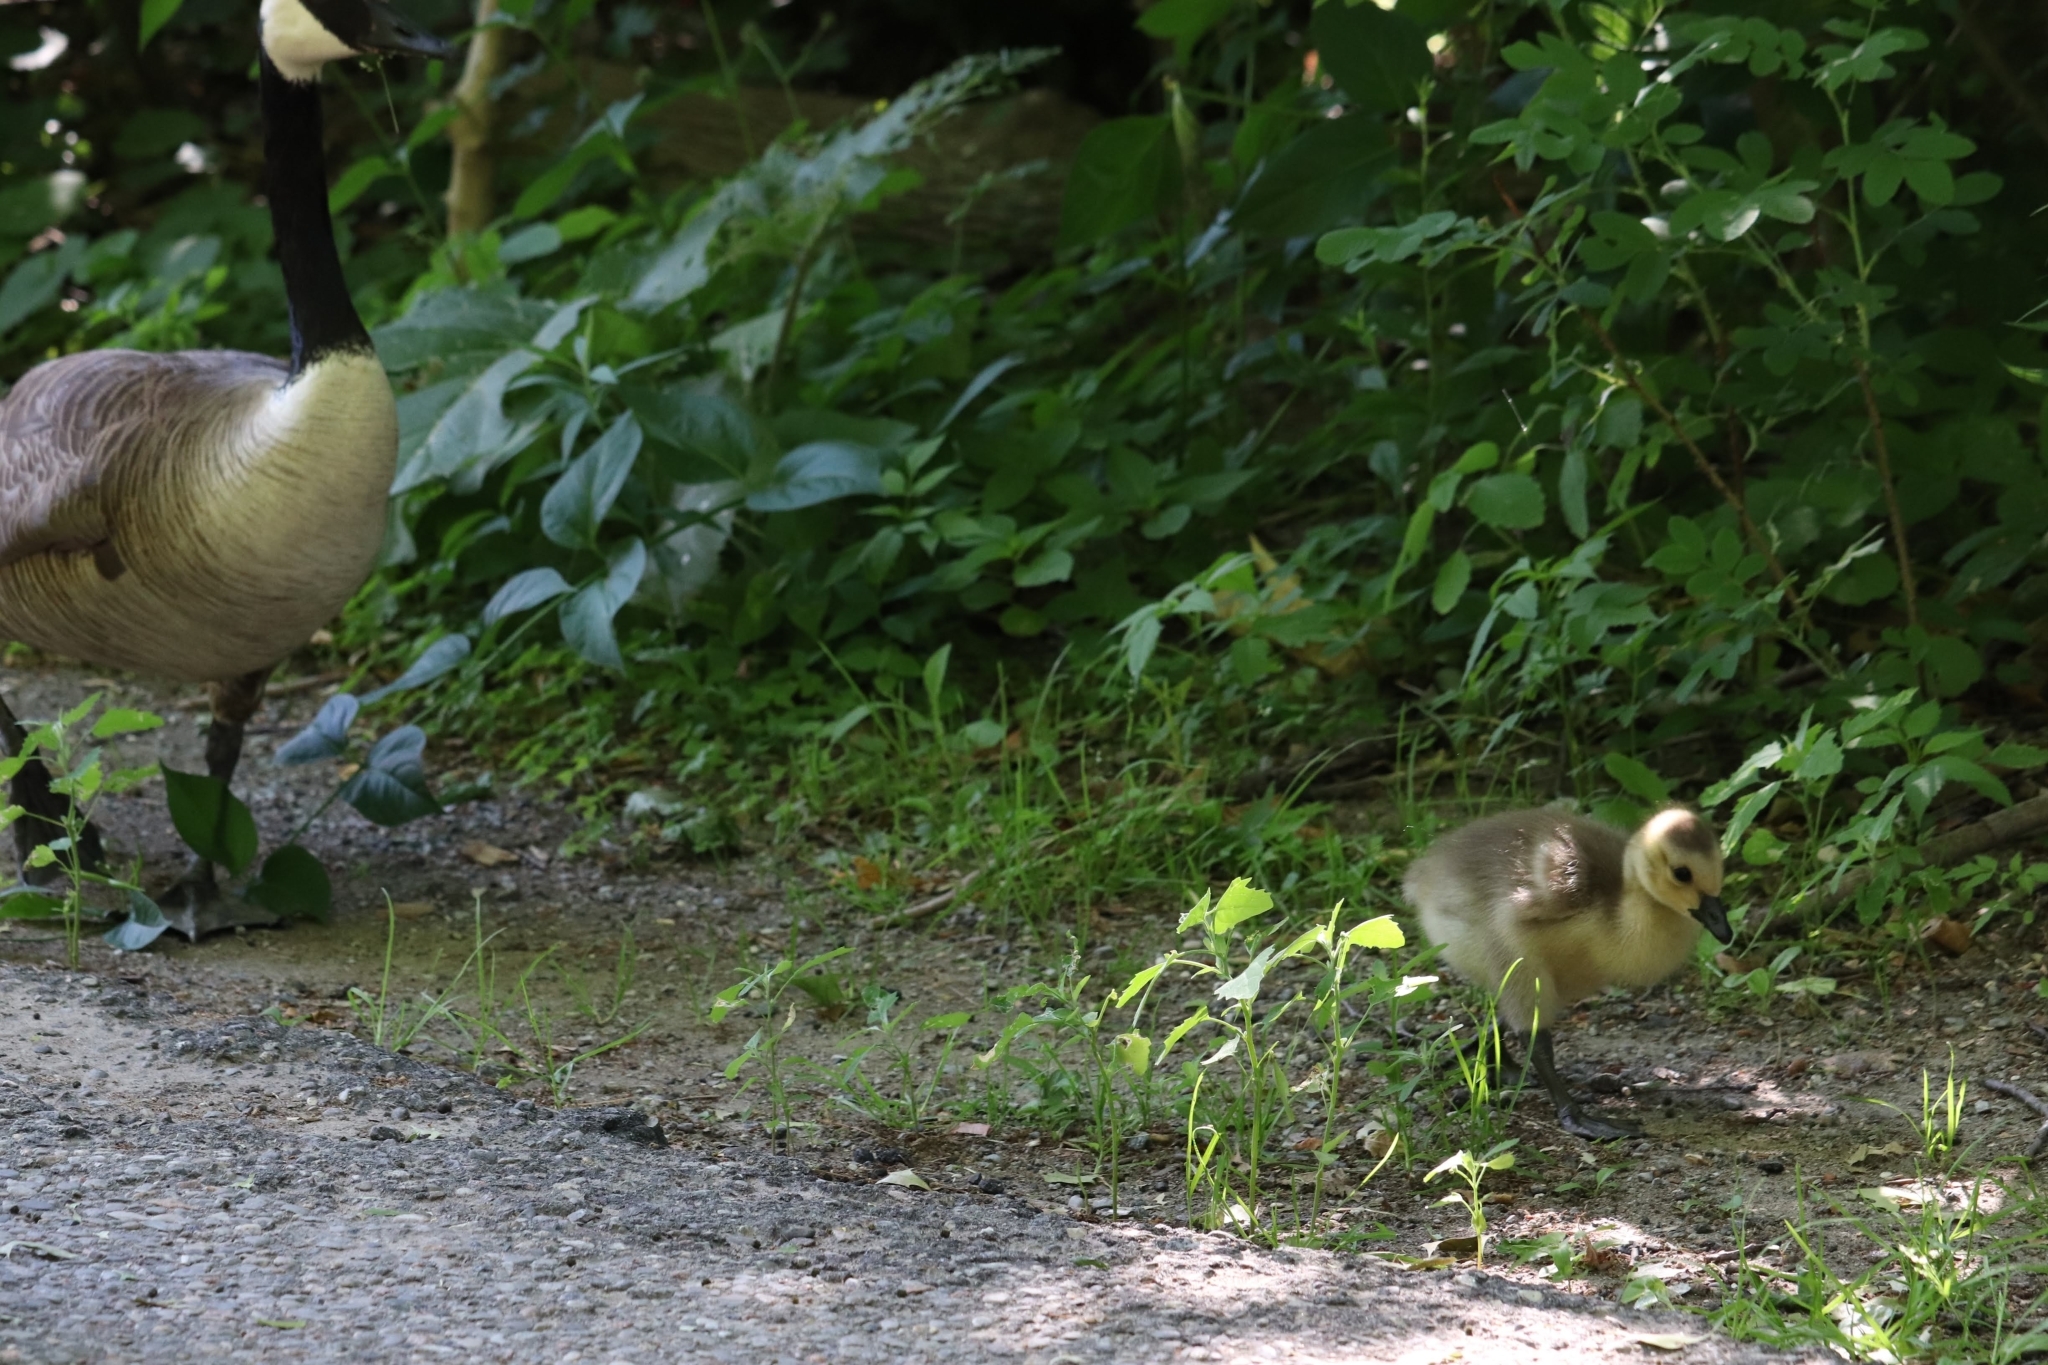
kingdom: Animalia
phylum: Chordata
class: Aves
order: Anseriformes
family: Anatidae
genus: Branta
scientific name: Branta canadensis
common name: Canada goose
